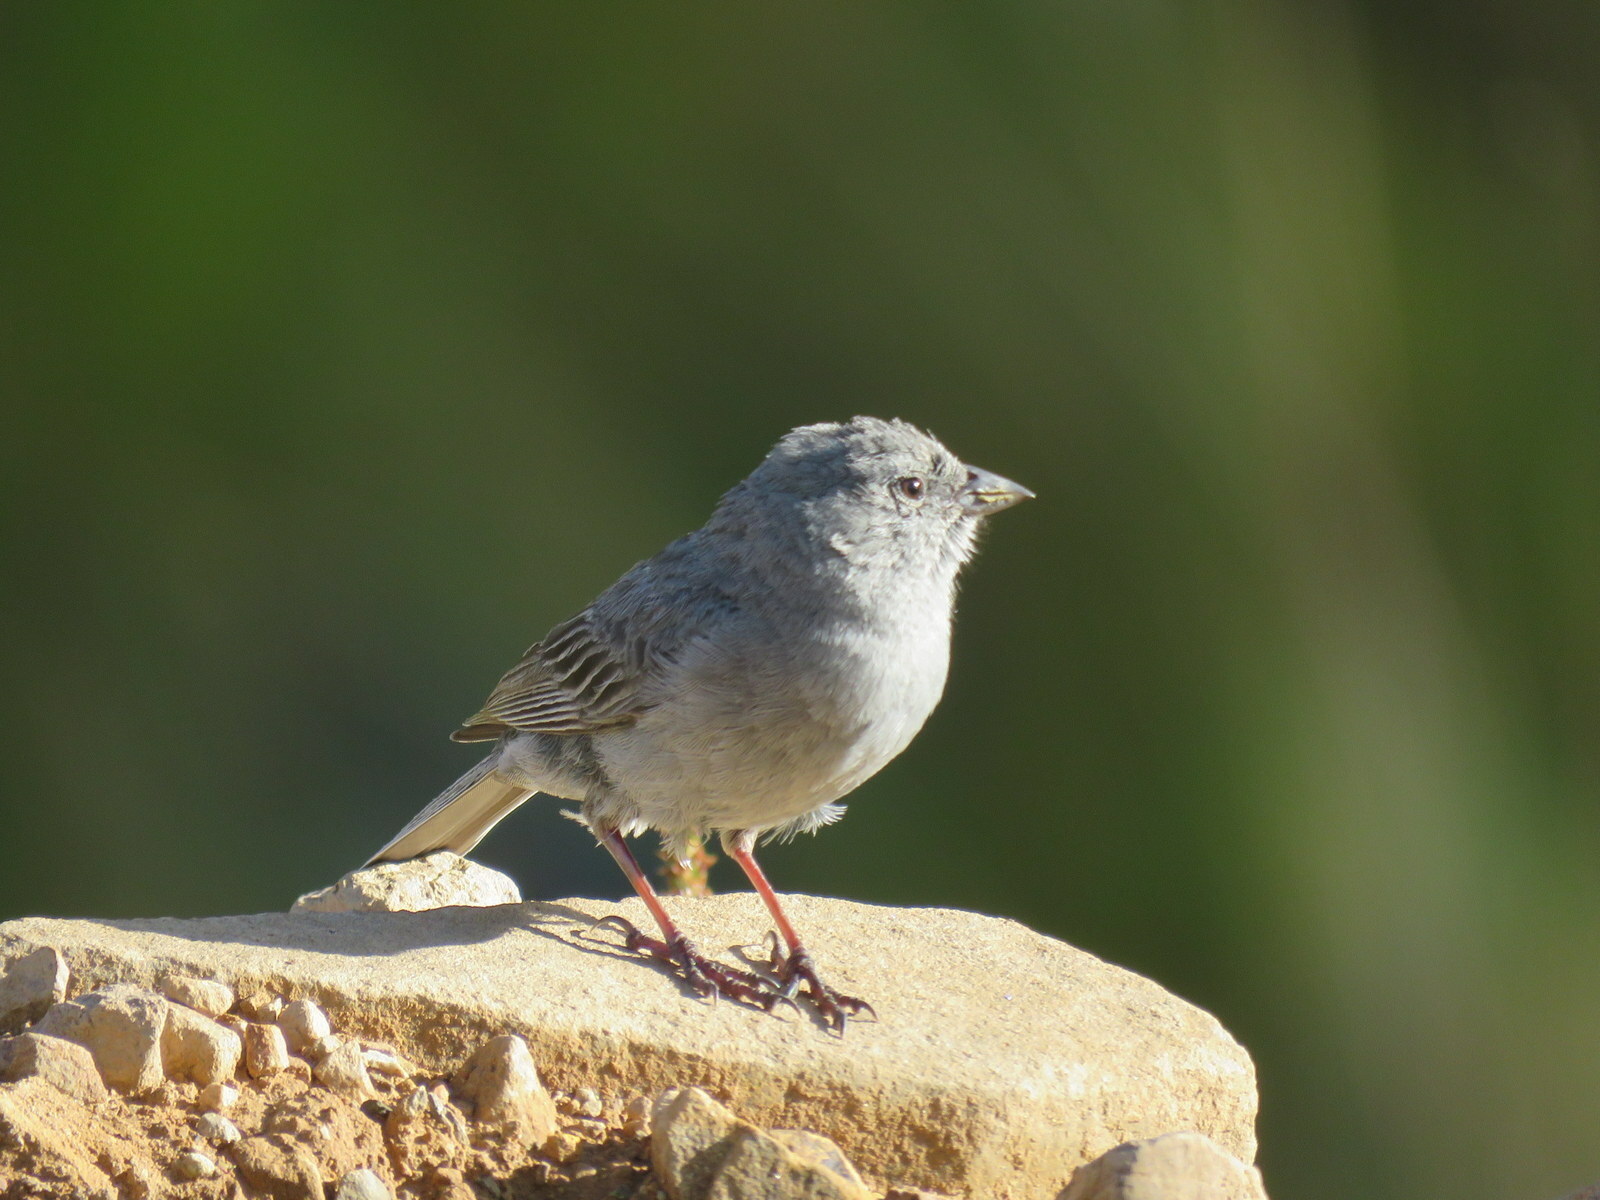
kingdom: Animalia
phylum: Chordata
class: Aves
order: Passeriformes
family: Thraupidae
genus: Geospizopsis
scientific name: Geospizopsis unicolor
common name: Plumbeous sierra-finch
